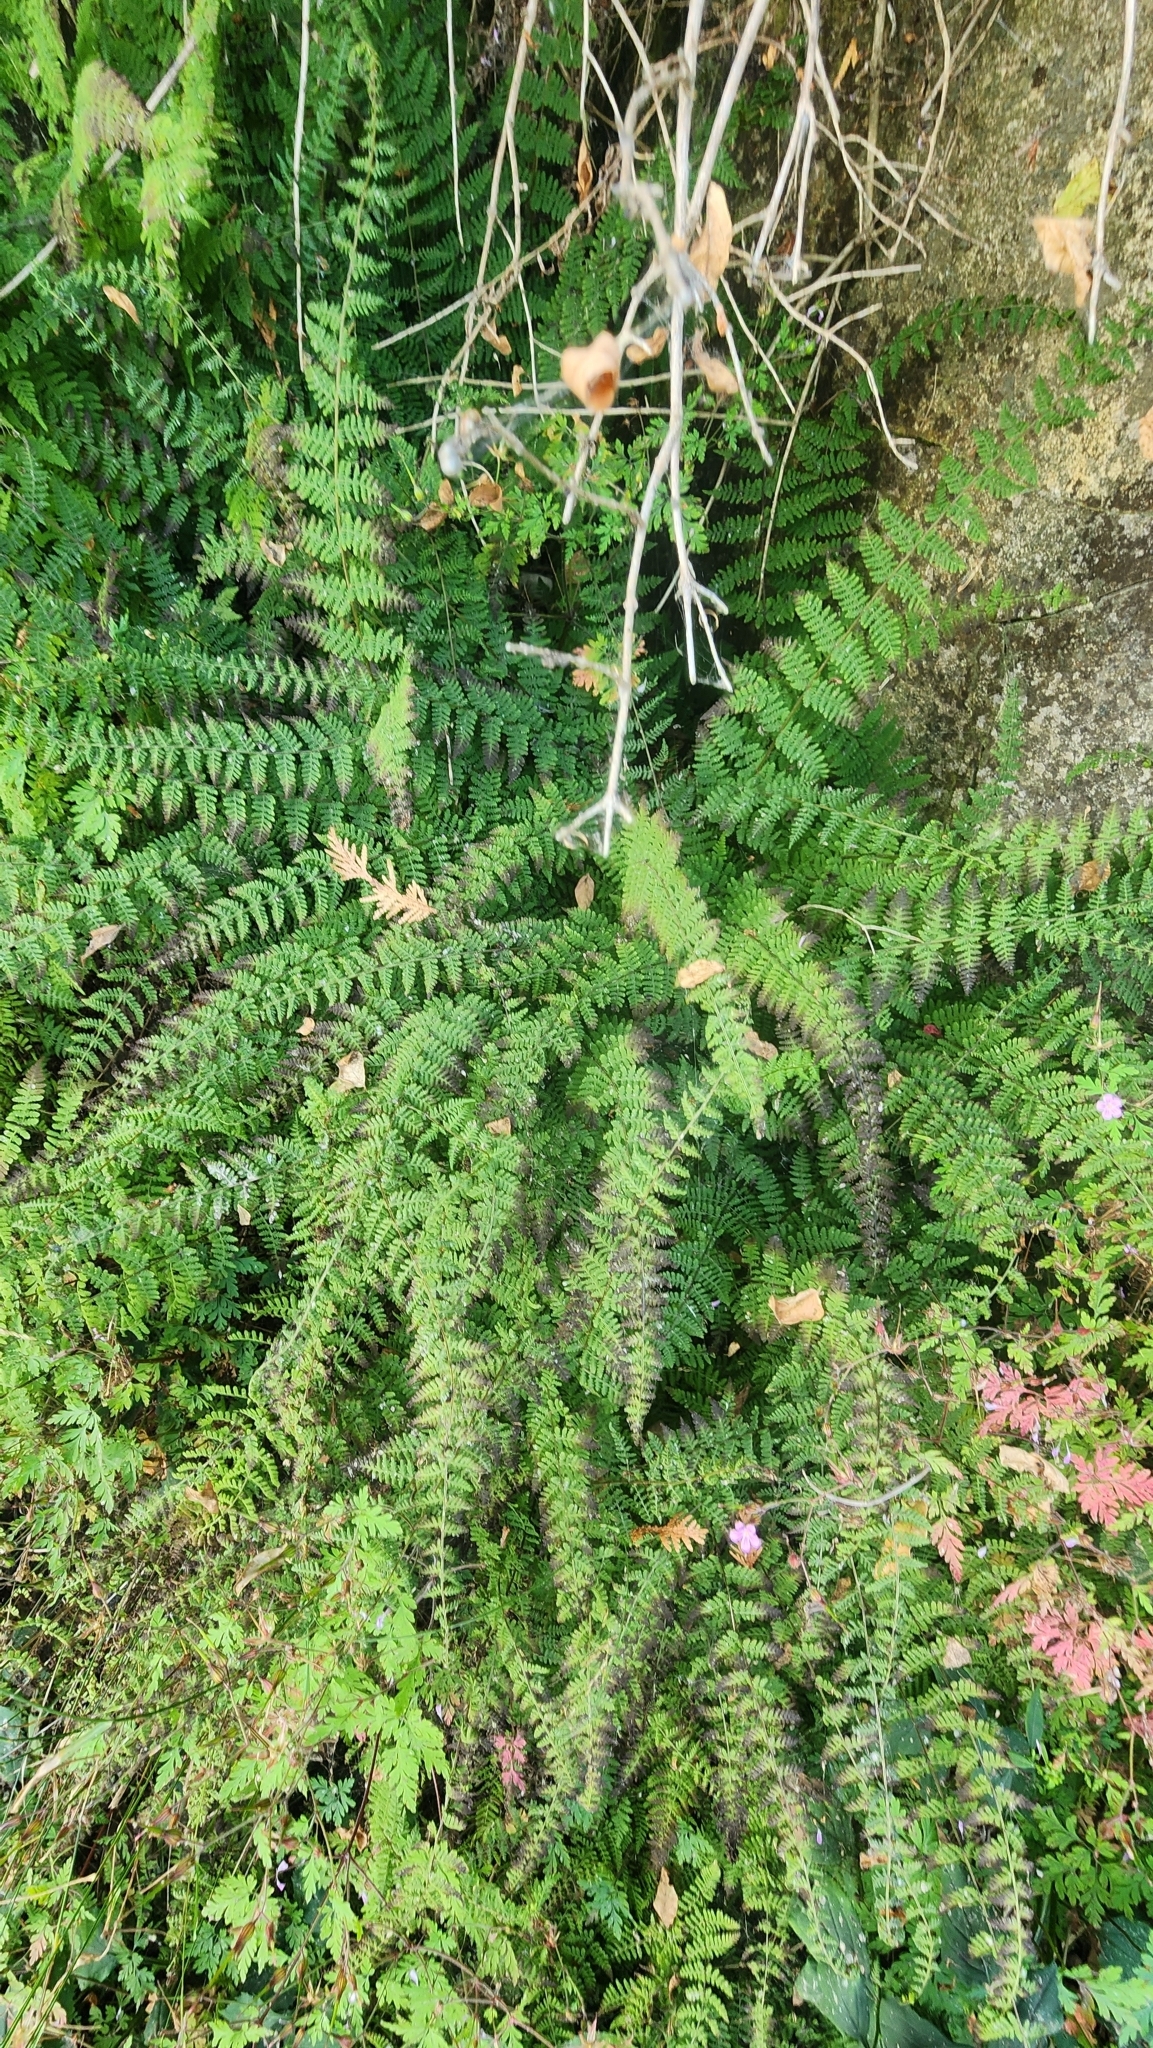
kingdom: Plantae
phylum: Tracheophyta
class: Polypodiopsida
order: Polypodiales
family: Cystopteridaceae
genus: Cystopteris
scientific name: Cystopteris bulbifera
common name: Bulblet bladder fern
